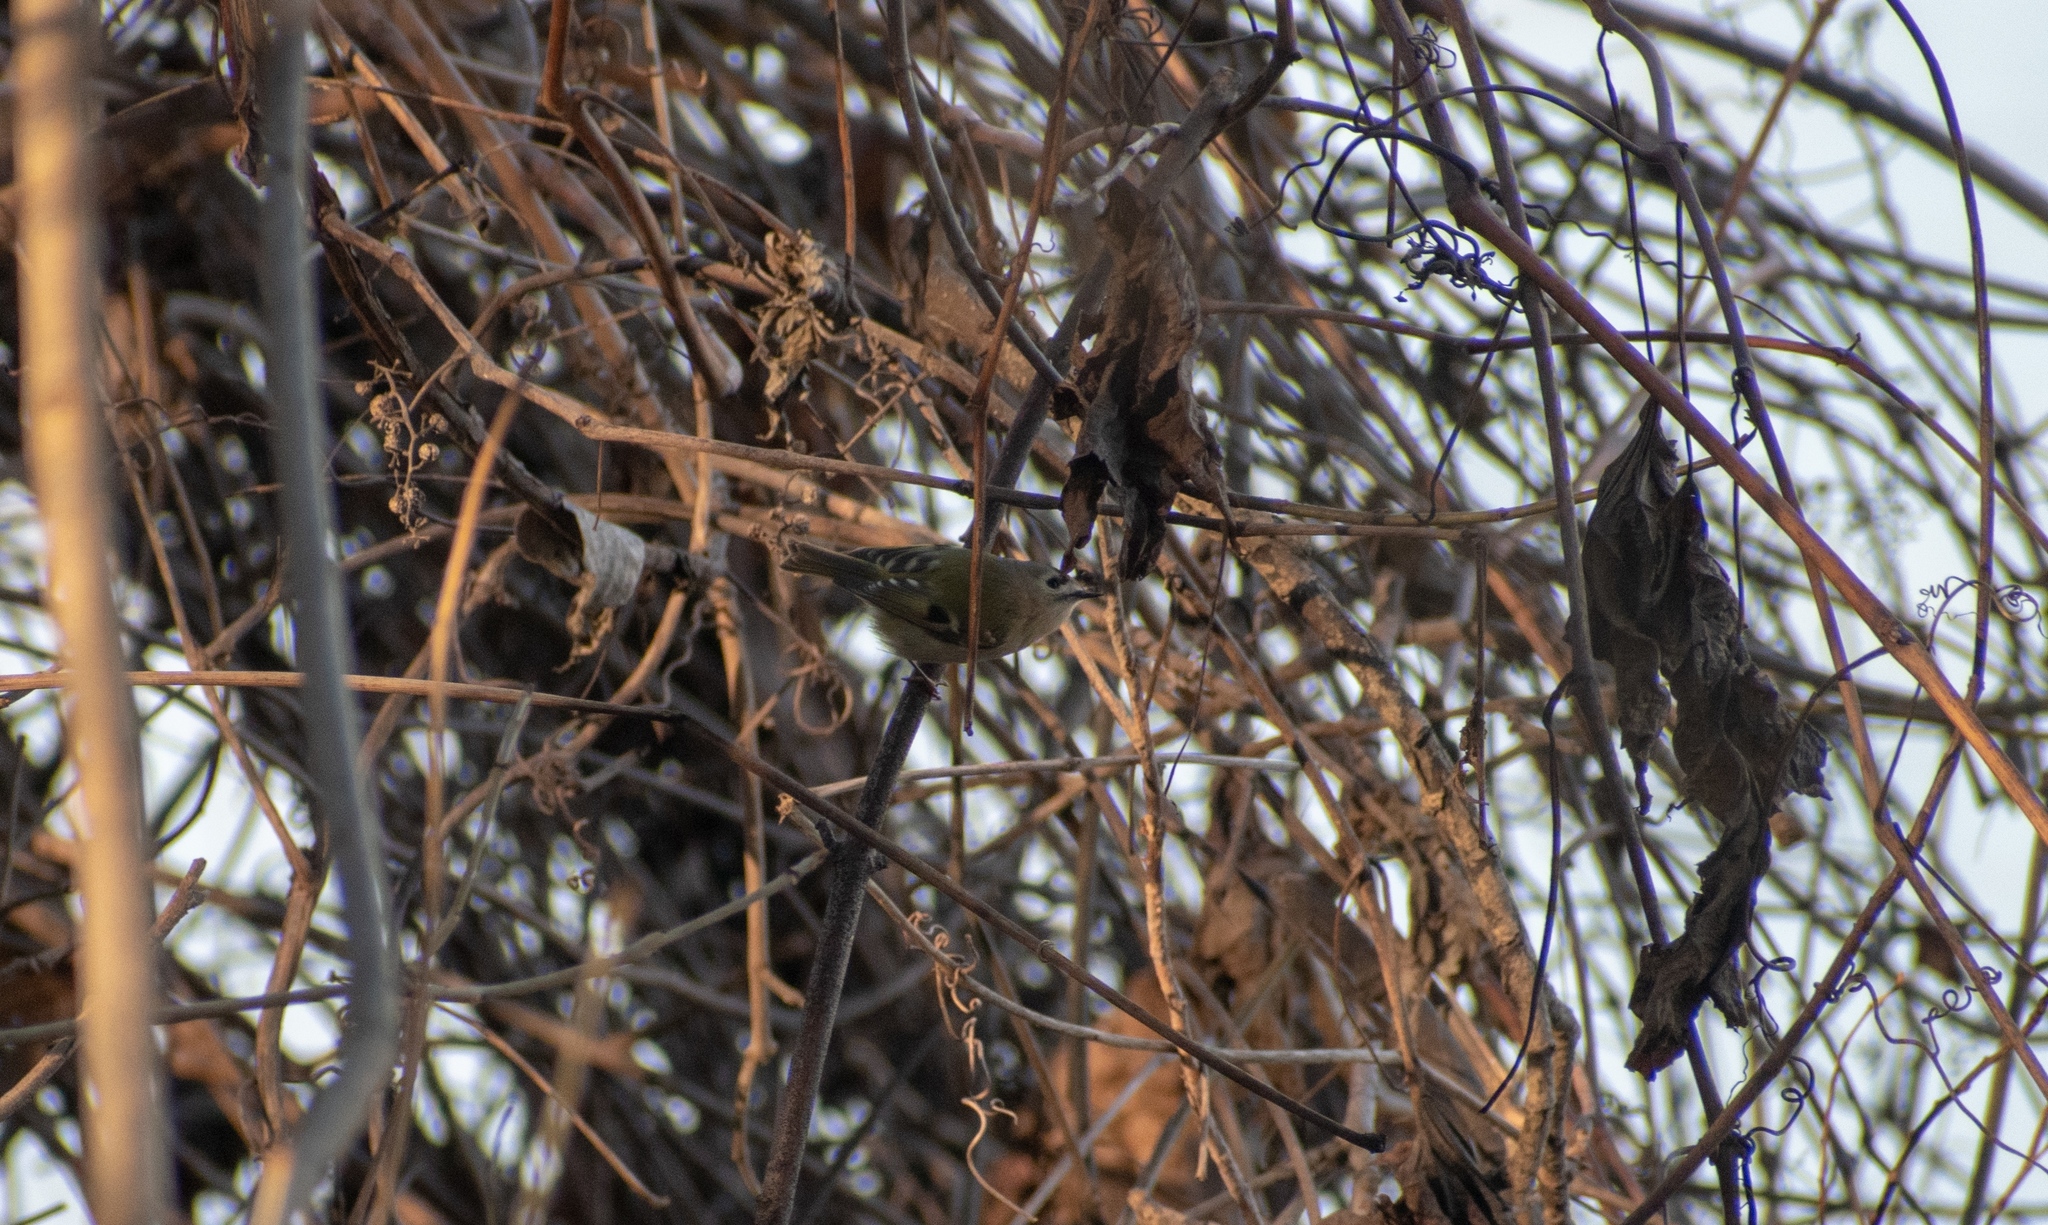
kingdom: Animalia
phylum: Chordata
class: Aves
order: Passeriformes
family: Regulidae
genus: Regulus
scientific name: Regulus regulus
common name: Goldcrest
